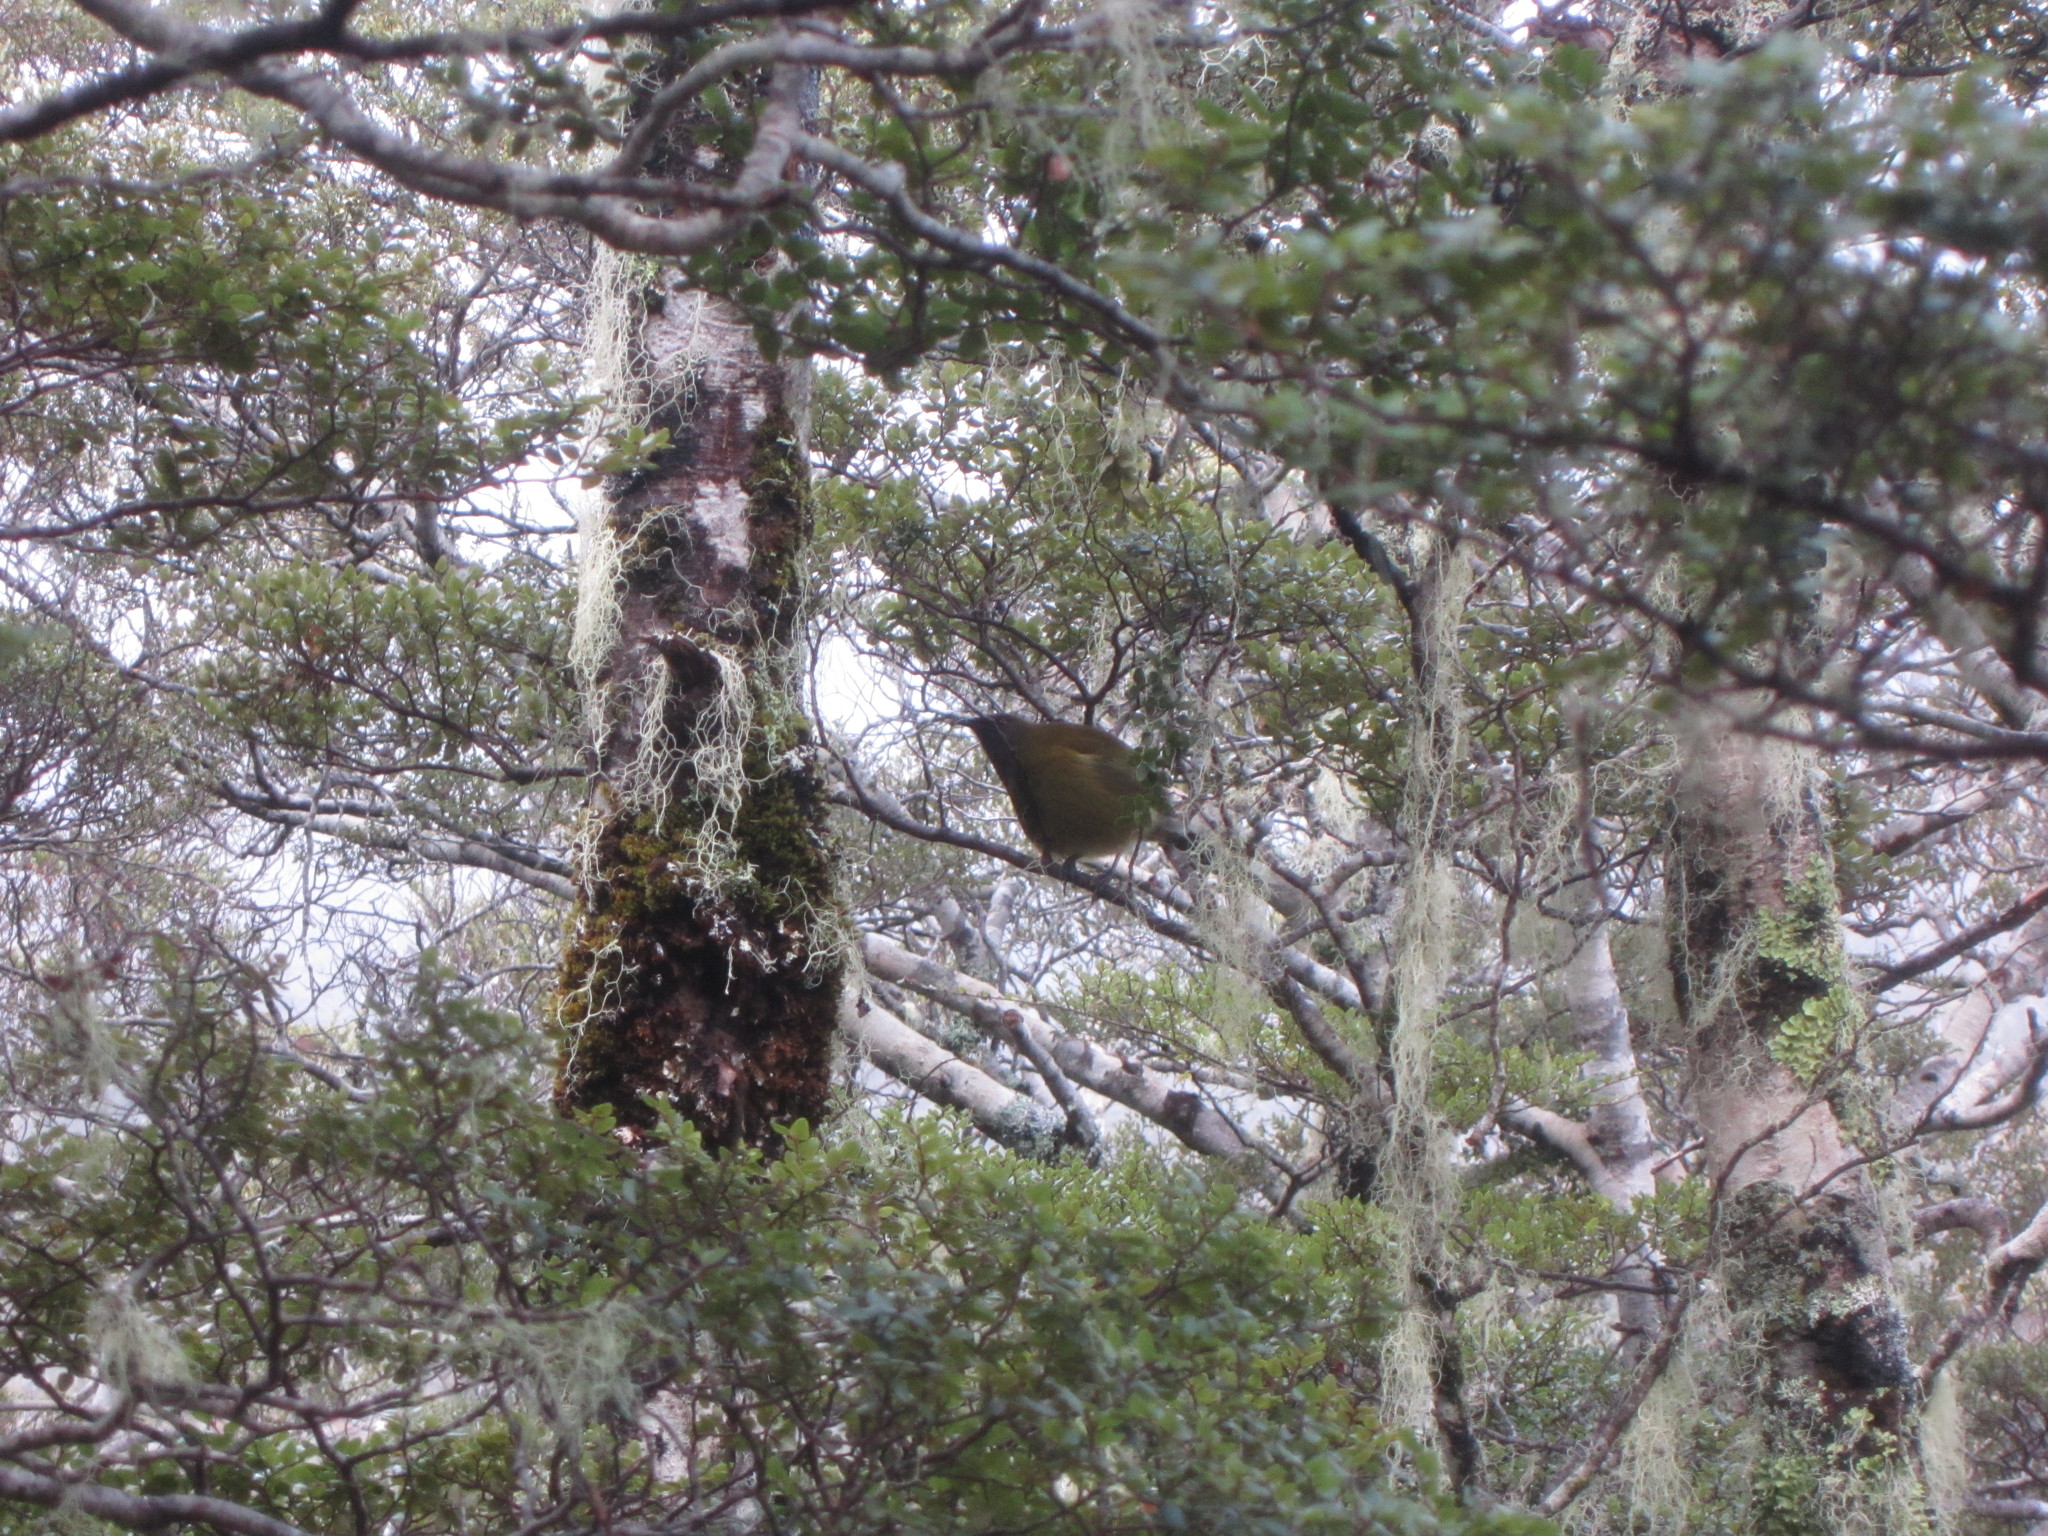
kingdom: Animalia
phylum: Chordata
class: Aves
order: Passeriformes
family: Meliphagidae
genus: Anthornis
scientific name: Anthornis melanura
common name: New zealand bellbird
